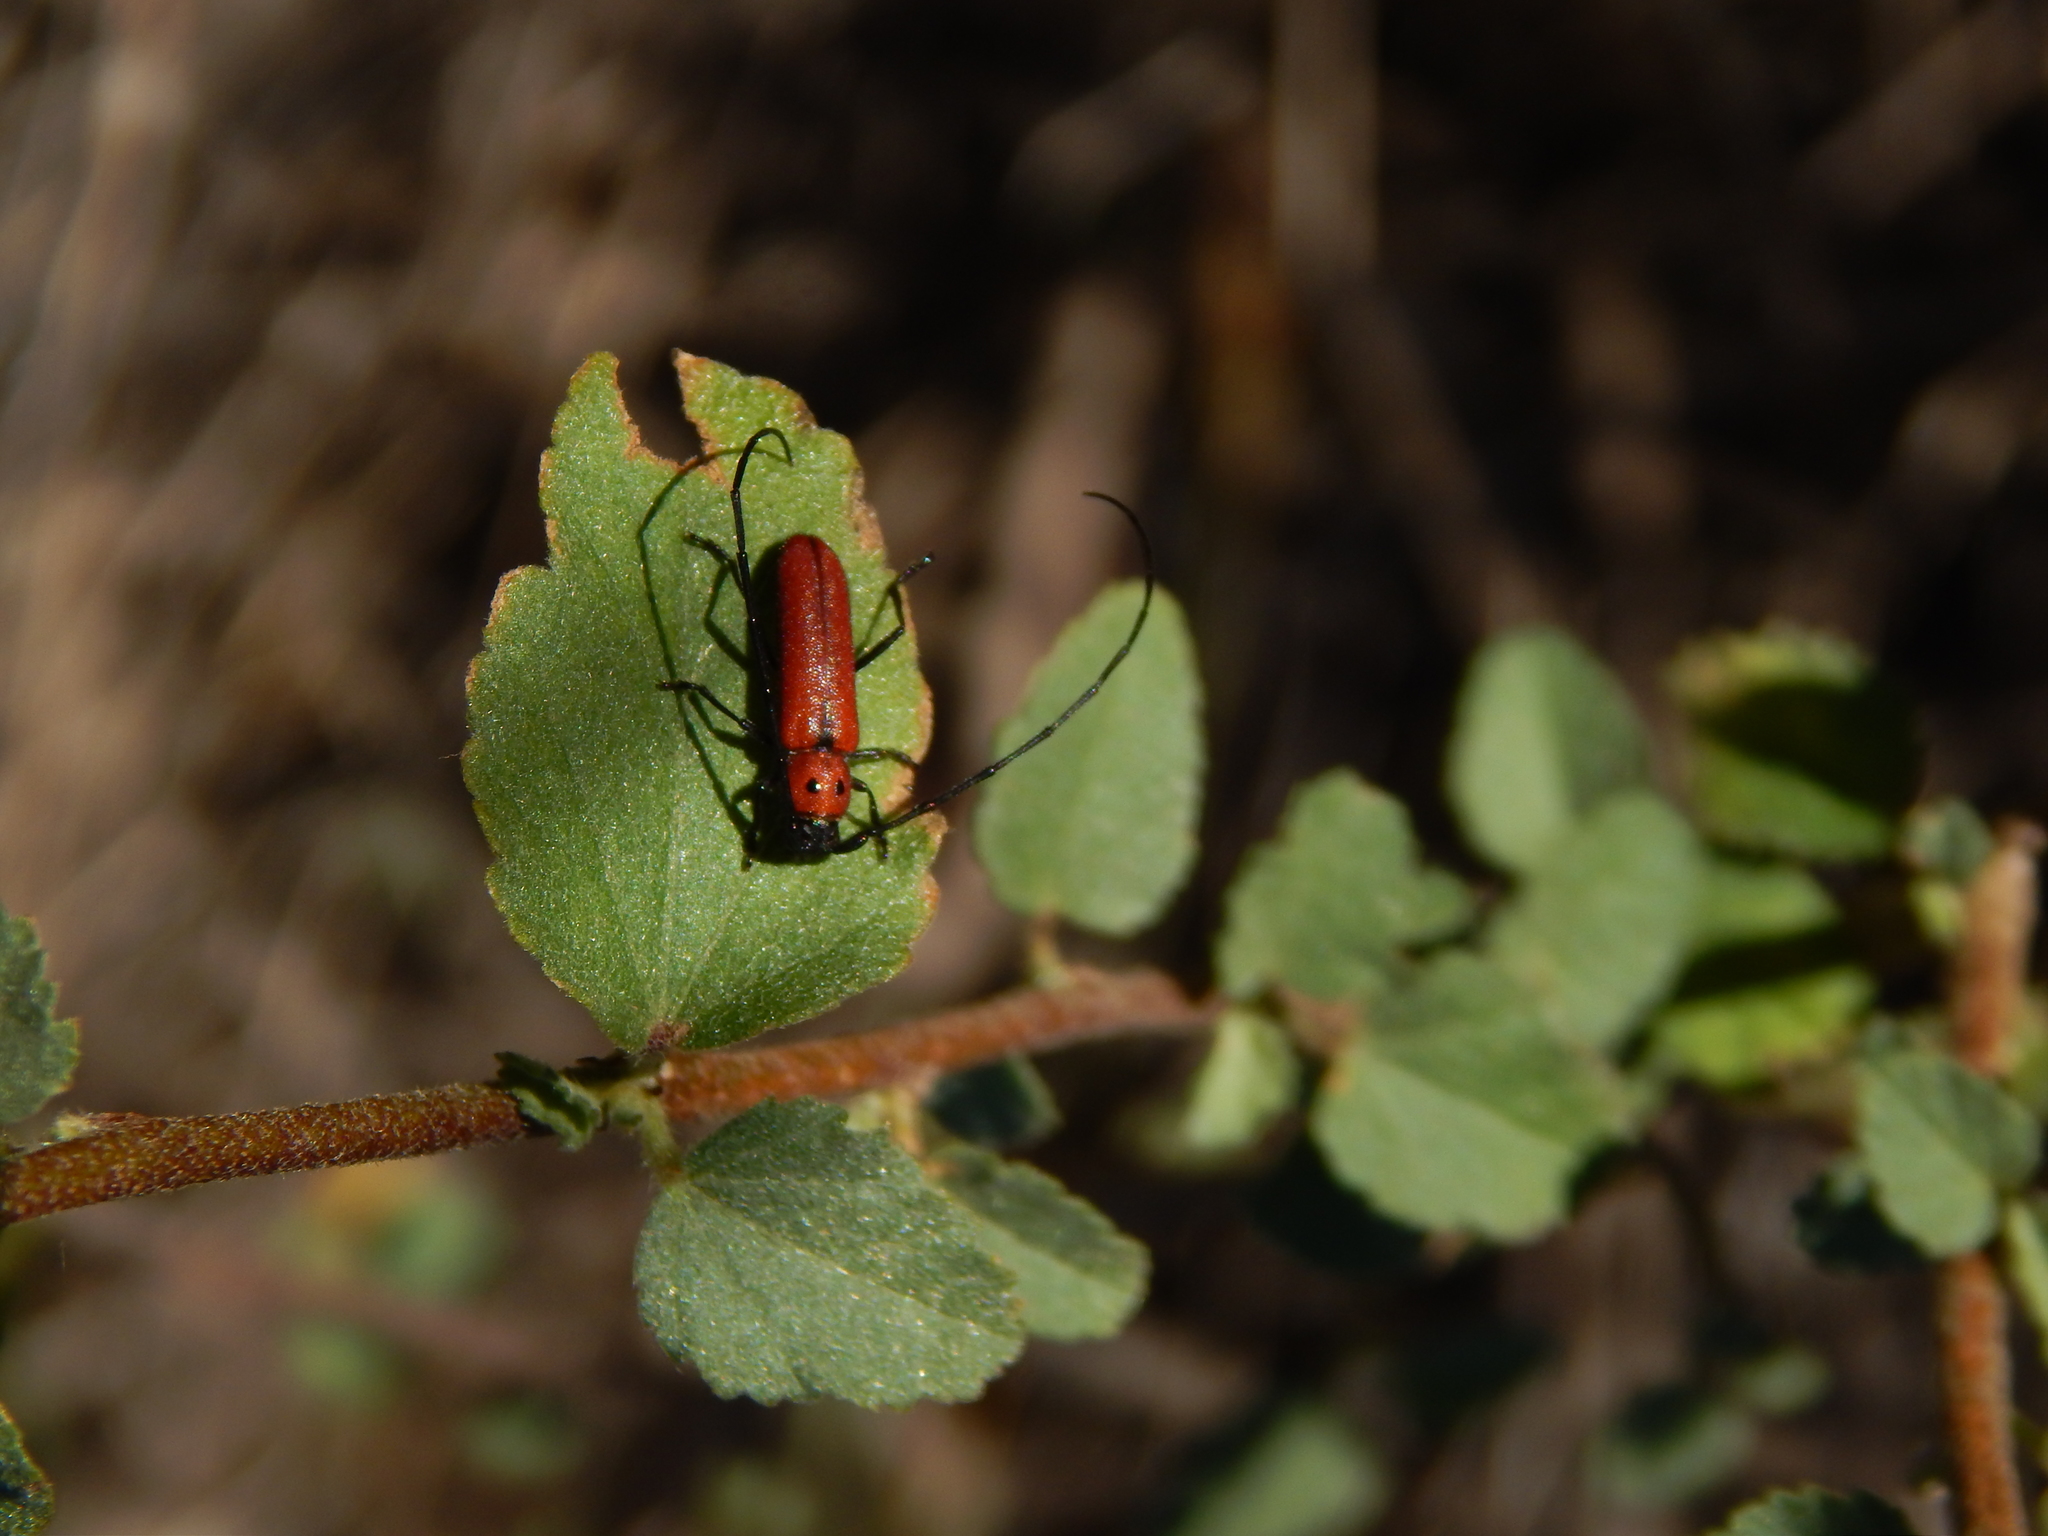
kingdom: Animalia
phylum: Arthropoda
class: Insecta
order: Coleoptera
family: Cerambycidae
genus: Tylosis
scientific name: Tylosis oculatus
